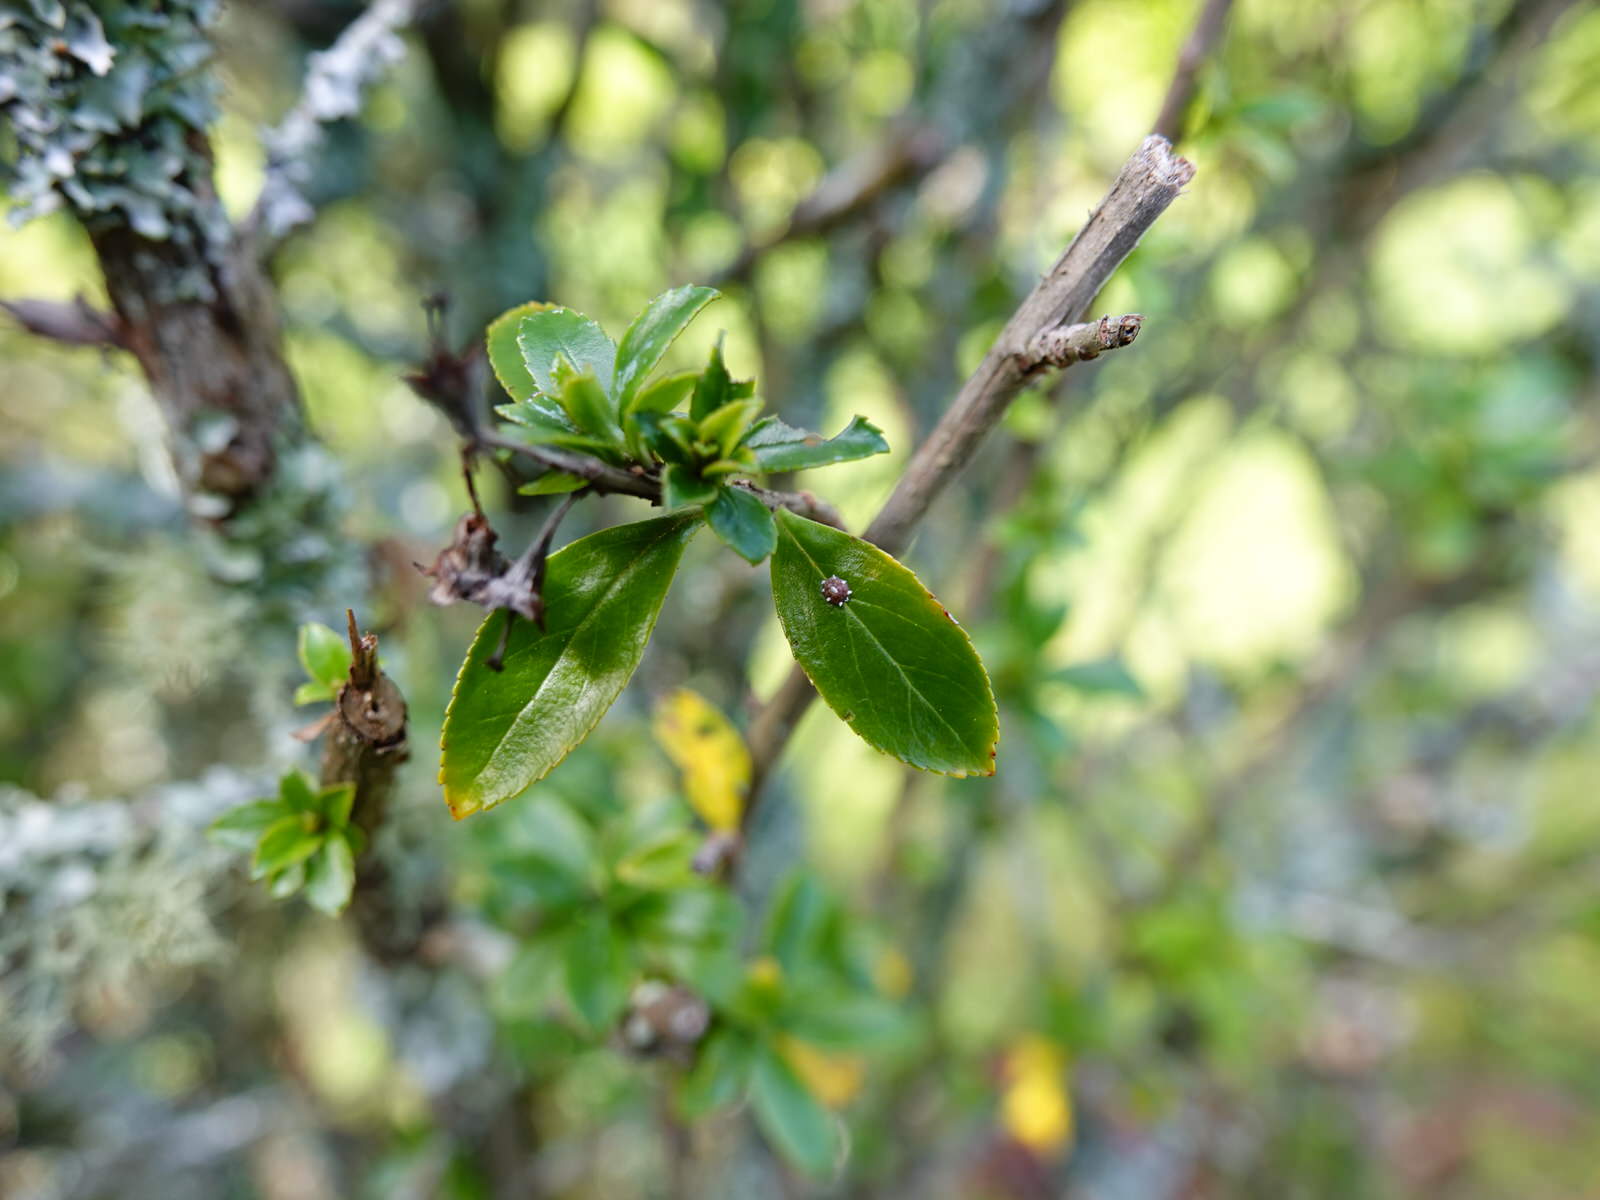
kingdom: Animalia
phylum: Arthropoda
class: Insecta
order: Hemiptera
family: Coccidae
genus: Ceroplastes
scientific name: Ceroplastes sinensis
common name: Hard wax scale
